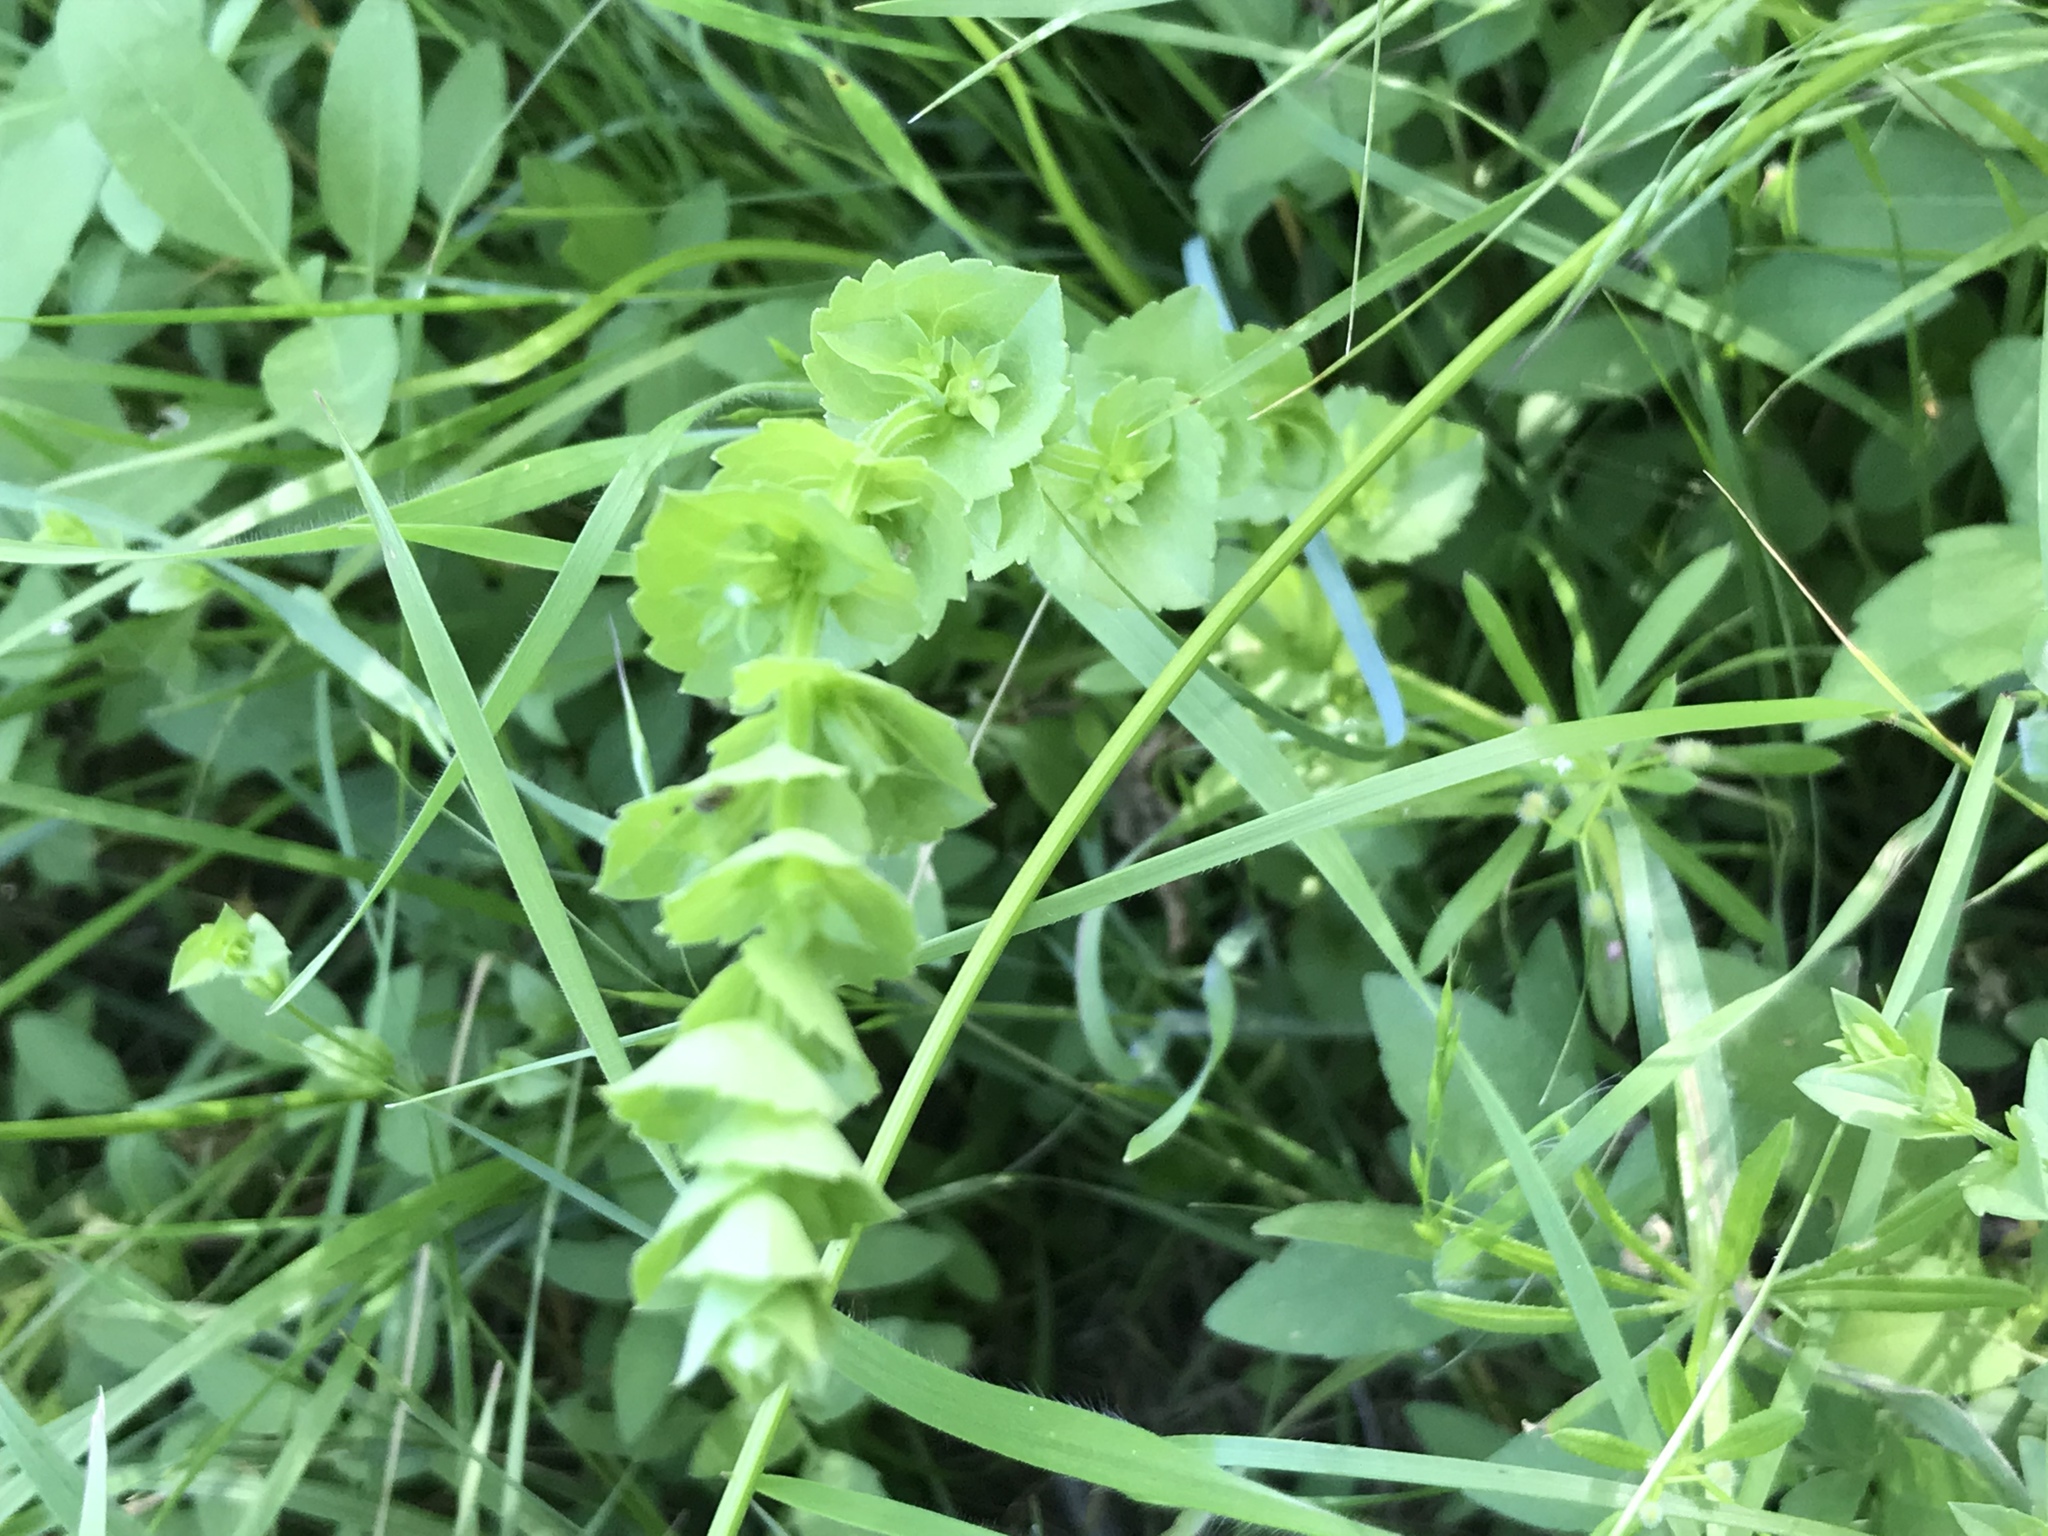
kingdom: Plantae
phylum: Tracheophyta
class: Magnoliopsida
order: Asterales
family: Campanulaceae
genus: Triodanis
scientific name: Triodanis perfoliata
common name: Clasping venus' looking-glass
